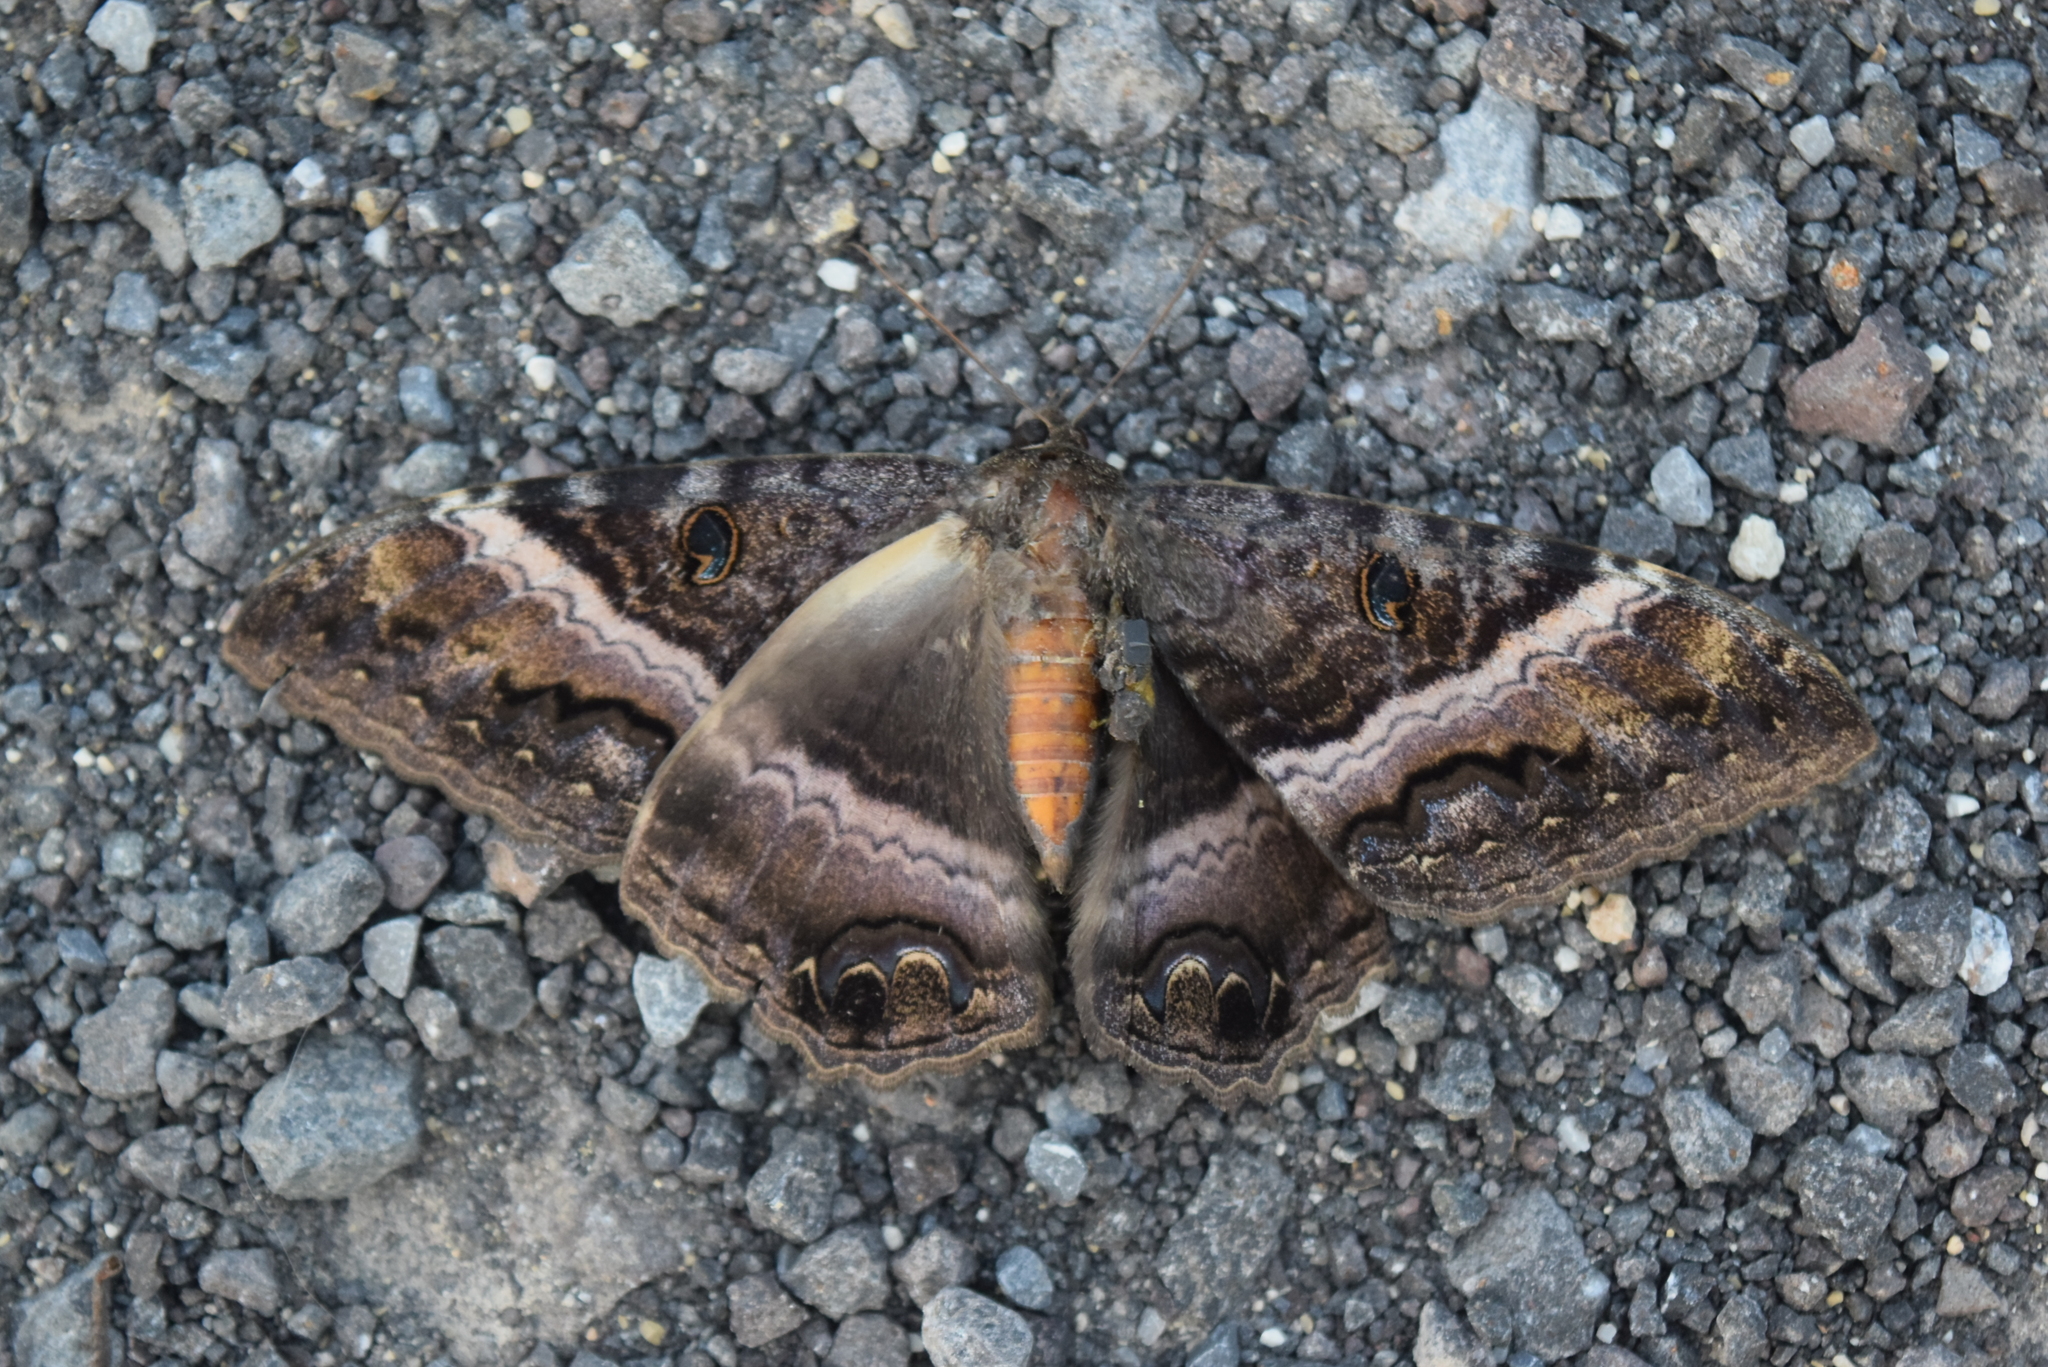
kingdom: Animalia
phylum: Arthropoda
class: Insecta
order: Lepidoptera
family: Erebidae
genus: Ascalapha
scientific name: Ascalapha odorata
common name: Black witch
